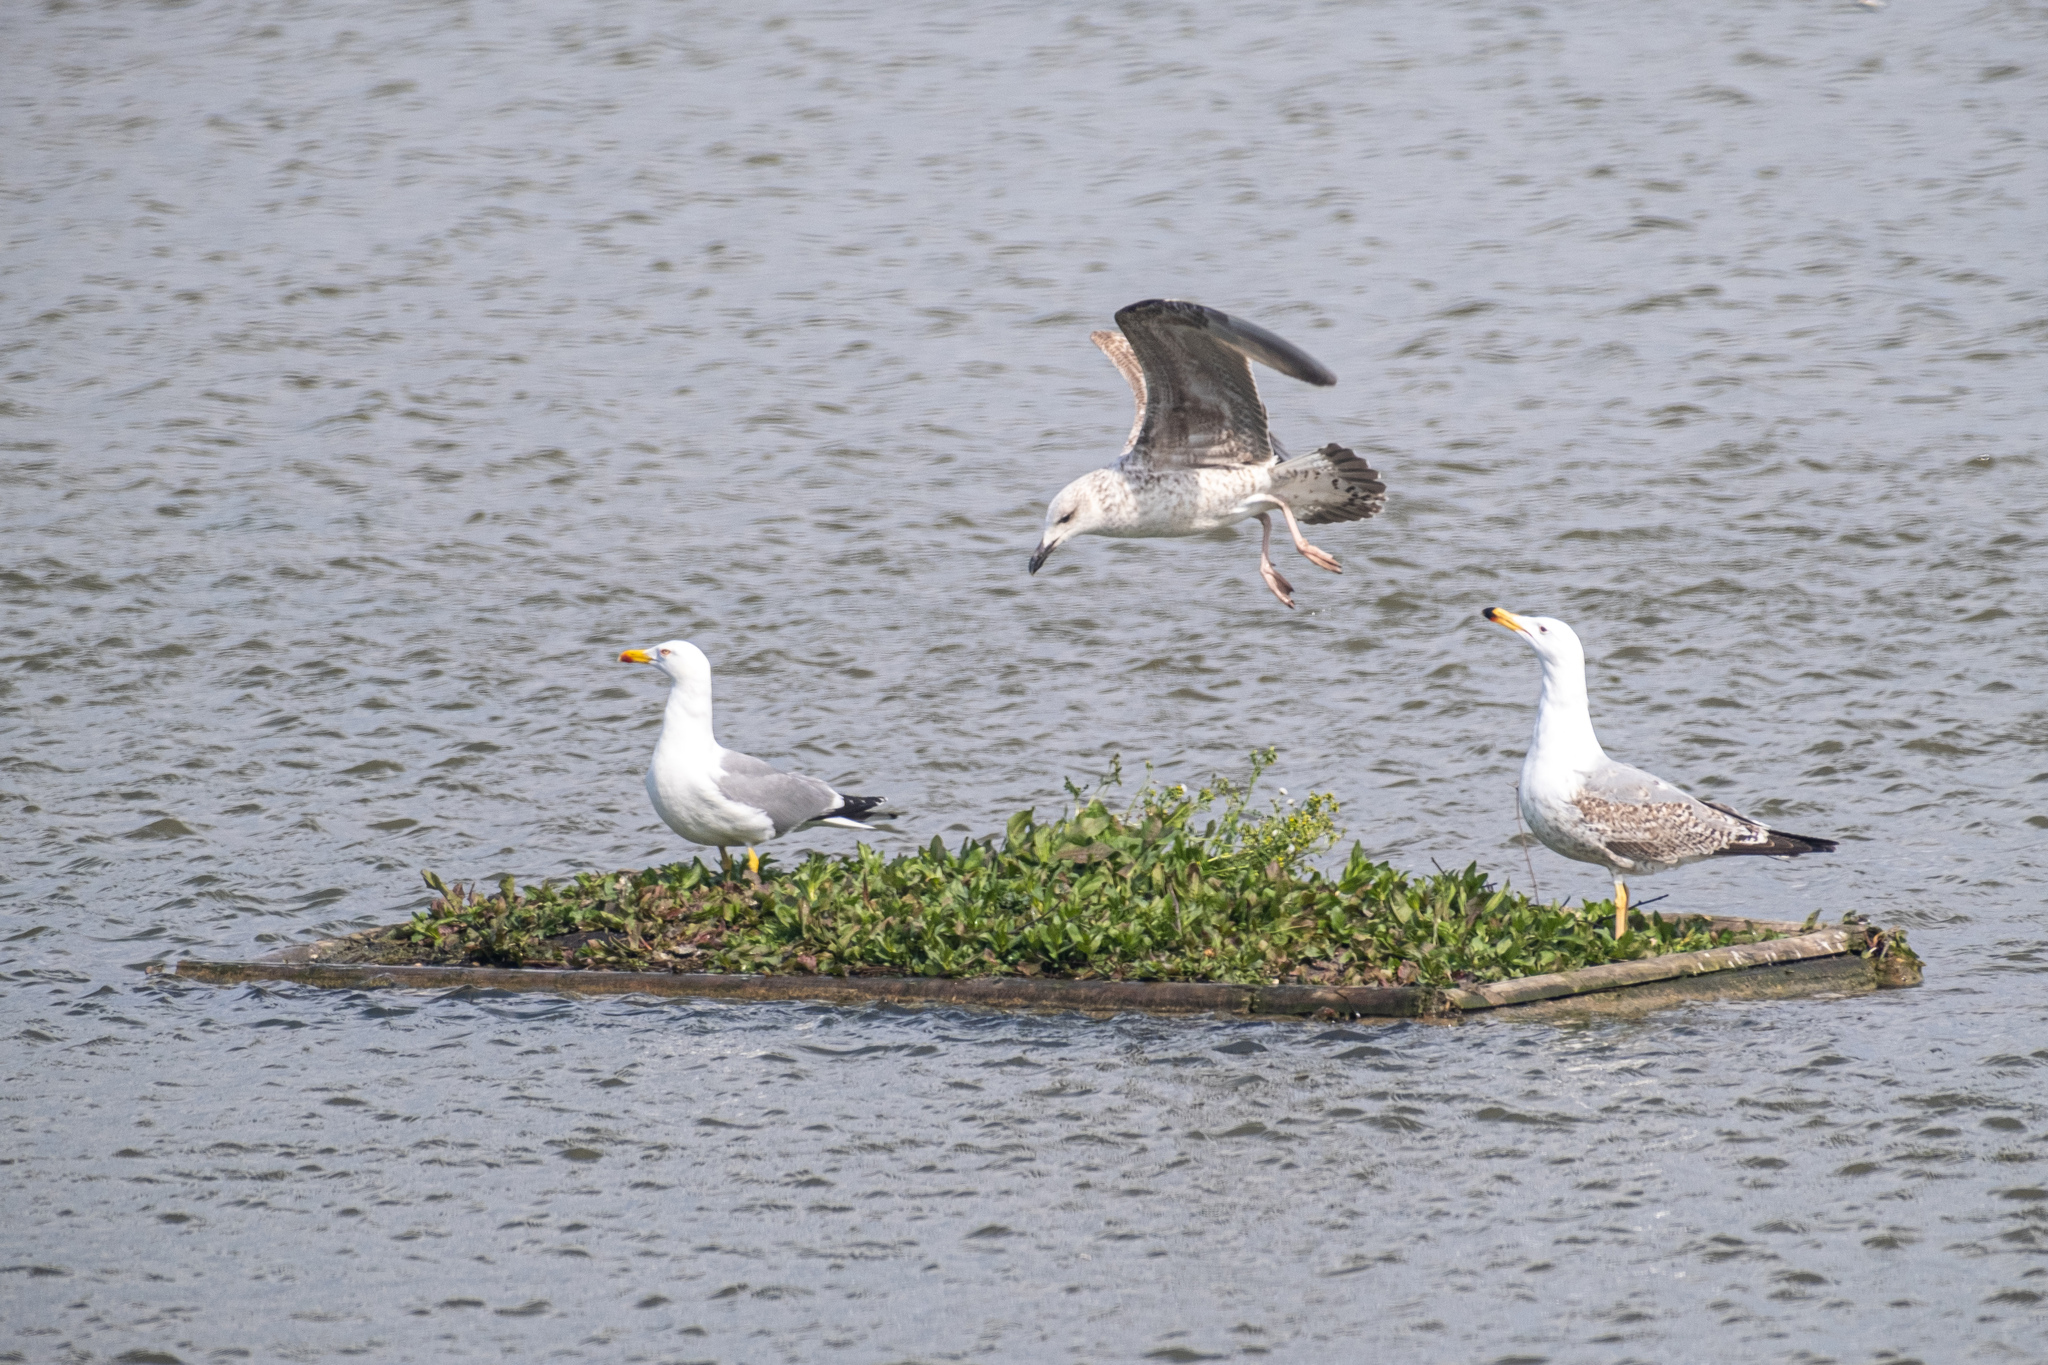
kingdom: Animalia
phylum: Chordata
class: Aves
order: Charadriiformes
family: Laridae
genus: Larus
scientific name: Larus michahellis
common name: Yellow-legged gull
